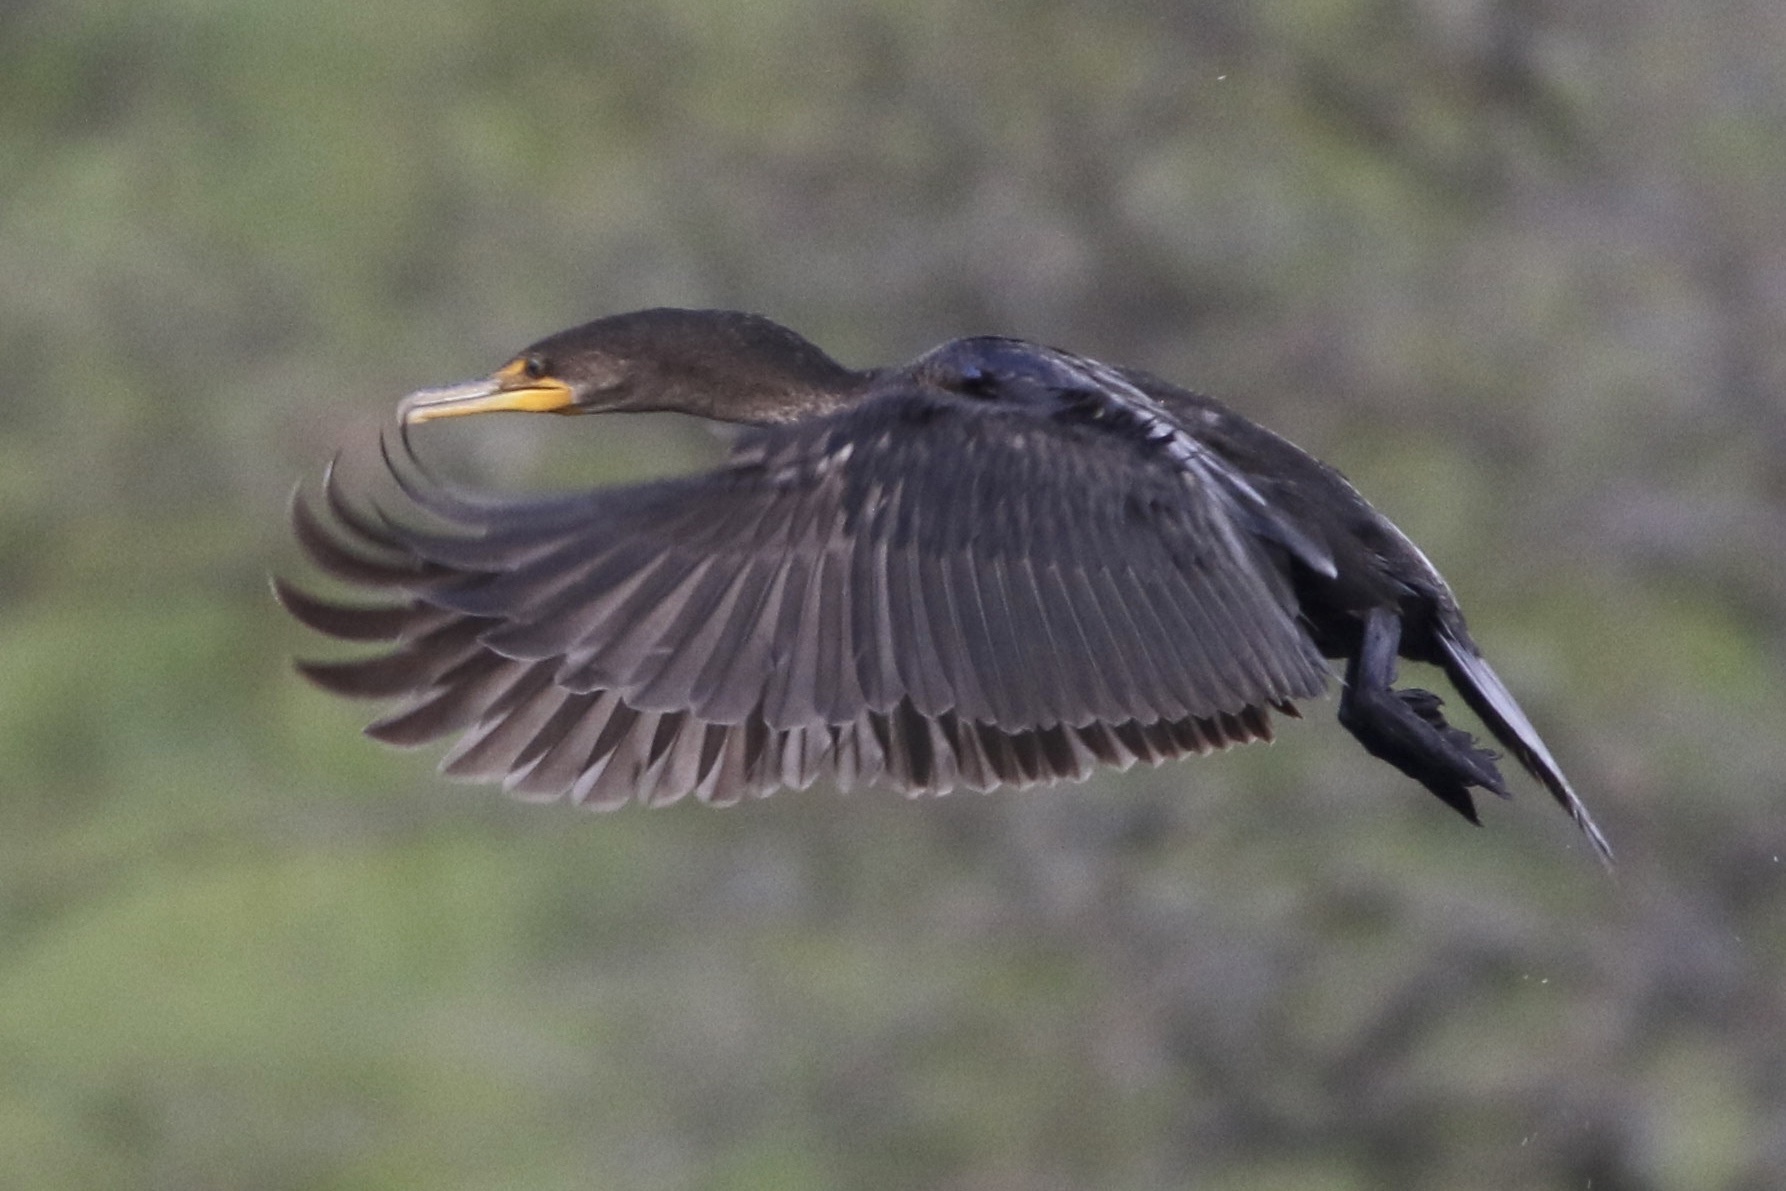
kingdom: Animalia
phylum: Chordata
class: Aves
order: Suliformes
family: Phalacrocoracidae
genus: Phalacrocorax
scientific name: Phalacrocorax auritus
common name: Double-crested cormorant
